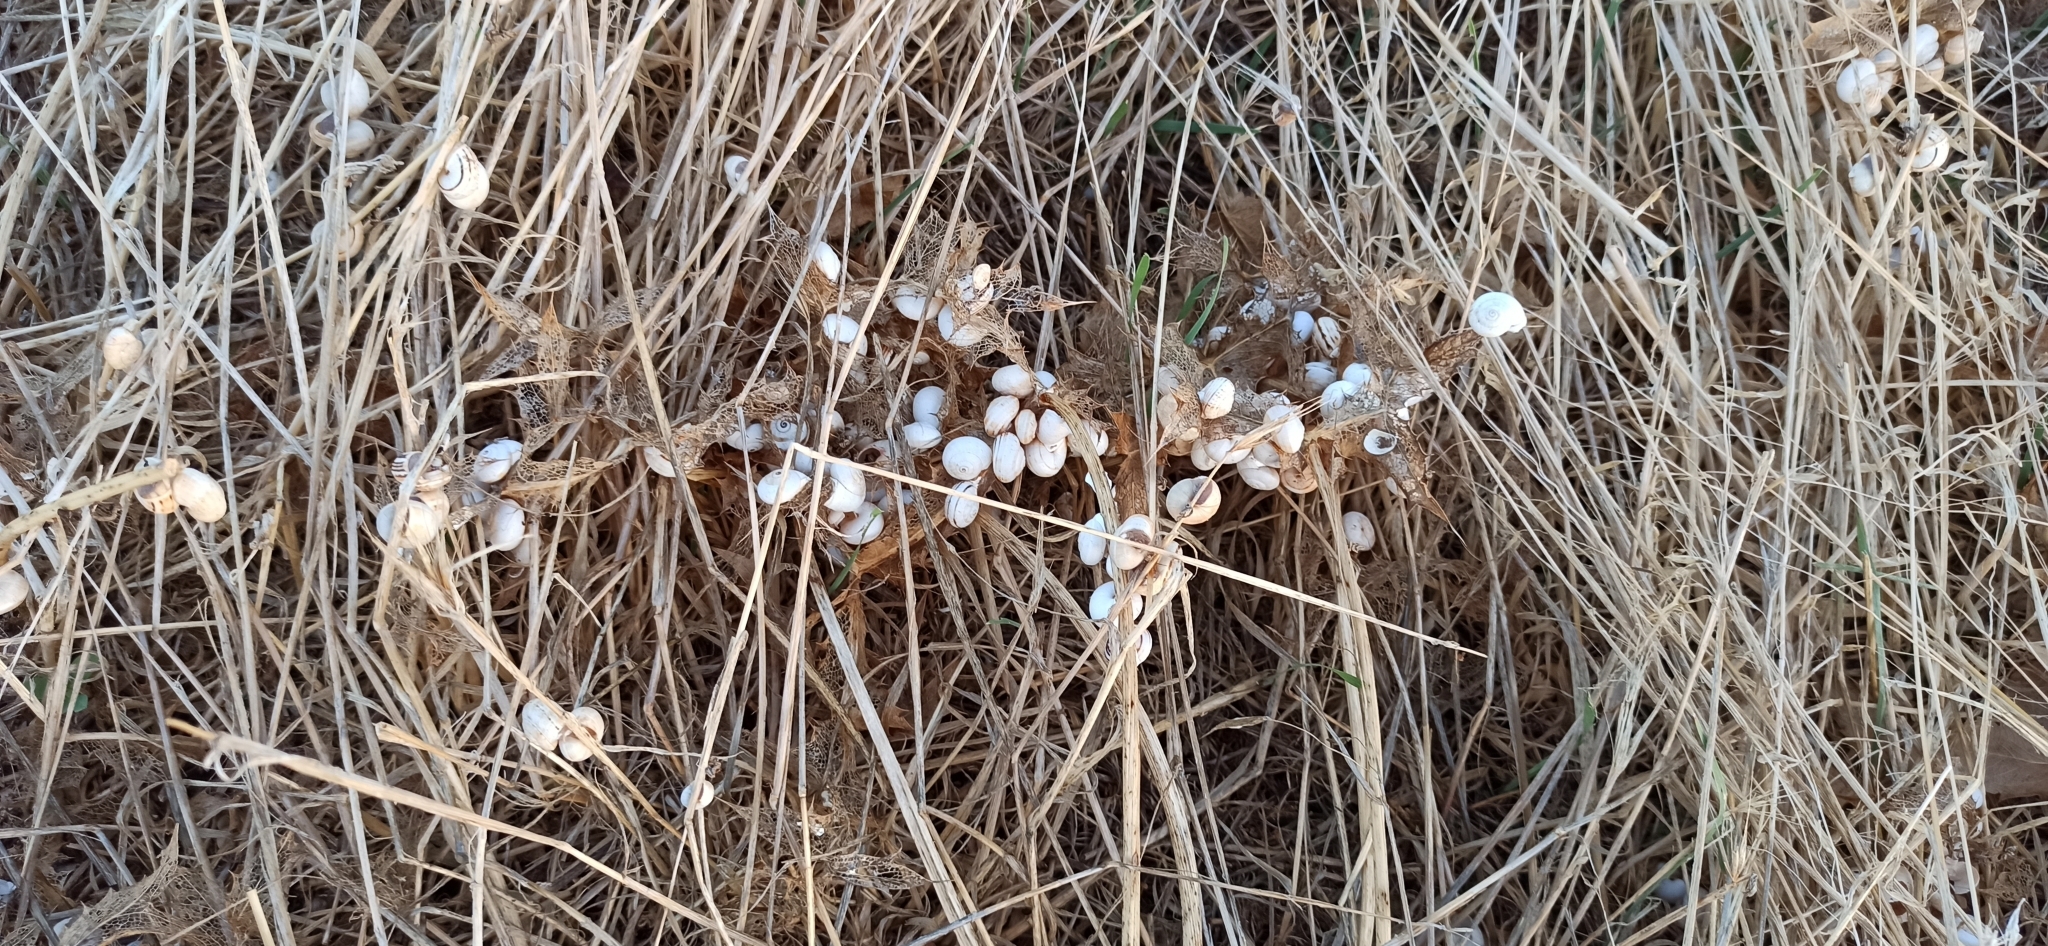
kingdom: Animalia
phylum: Mollusca
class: Gastropoda
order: Stylommatophora
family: Helicidae
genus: Theba
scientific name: Theba pisana
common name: White snail
